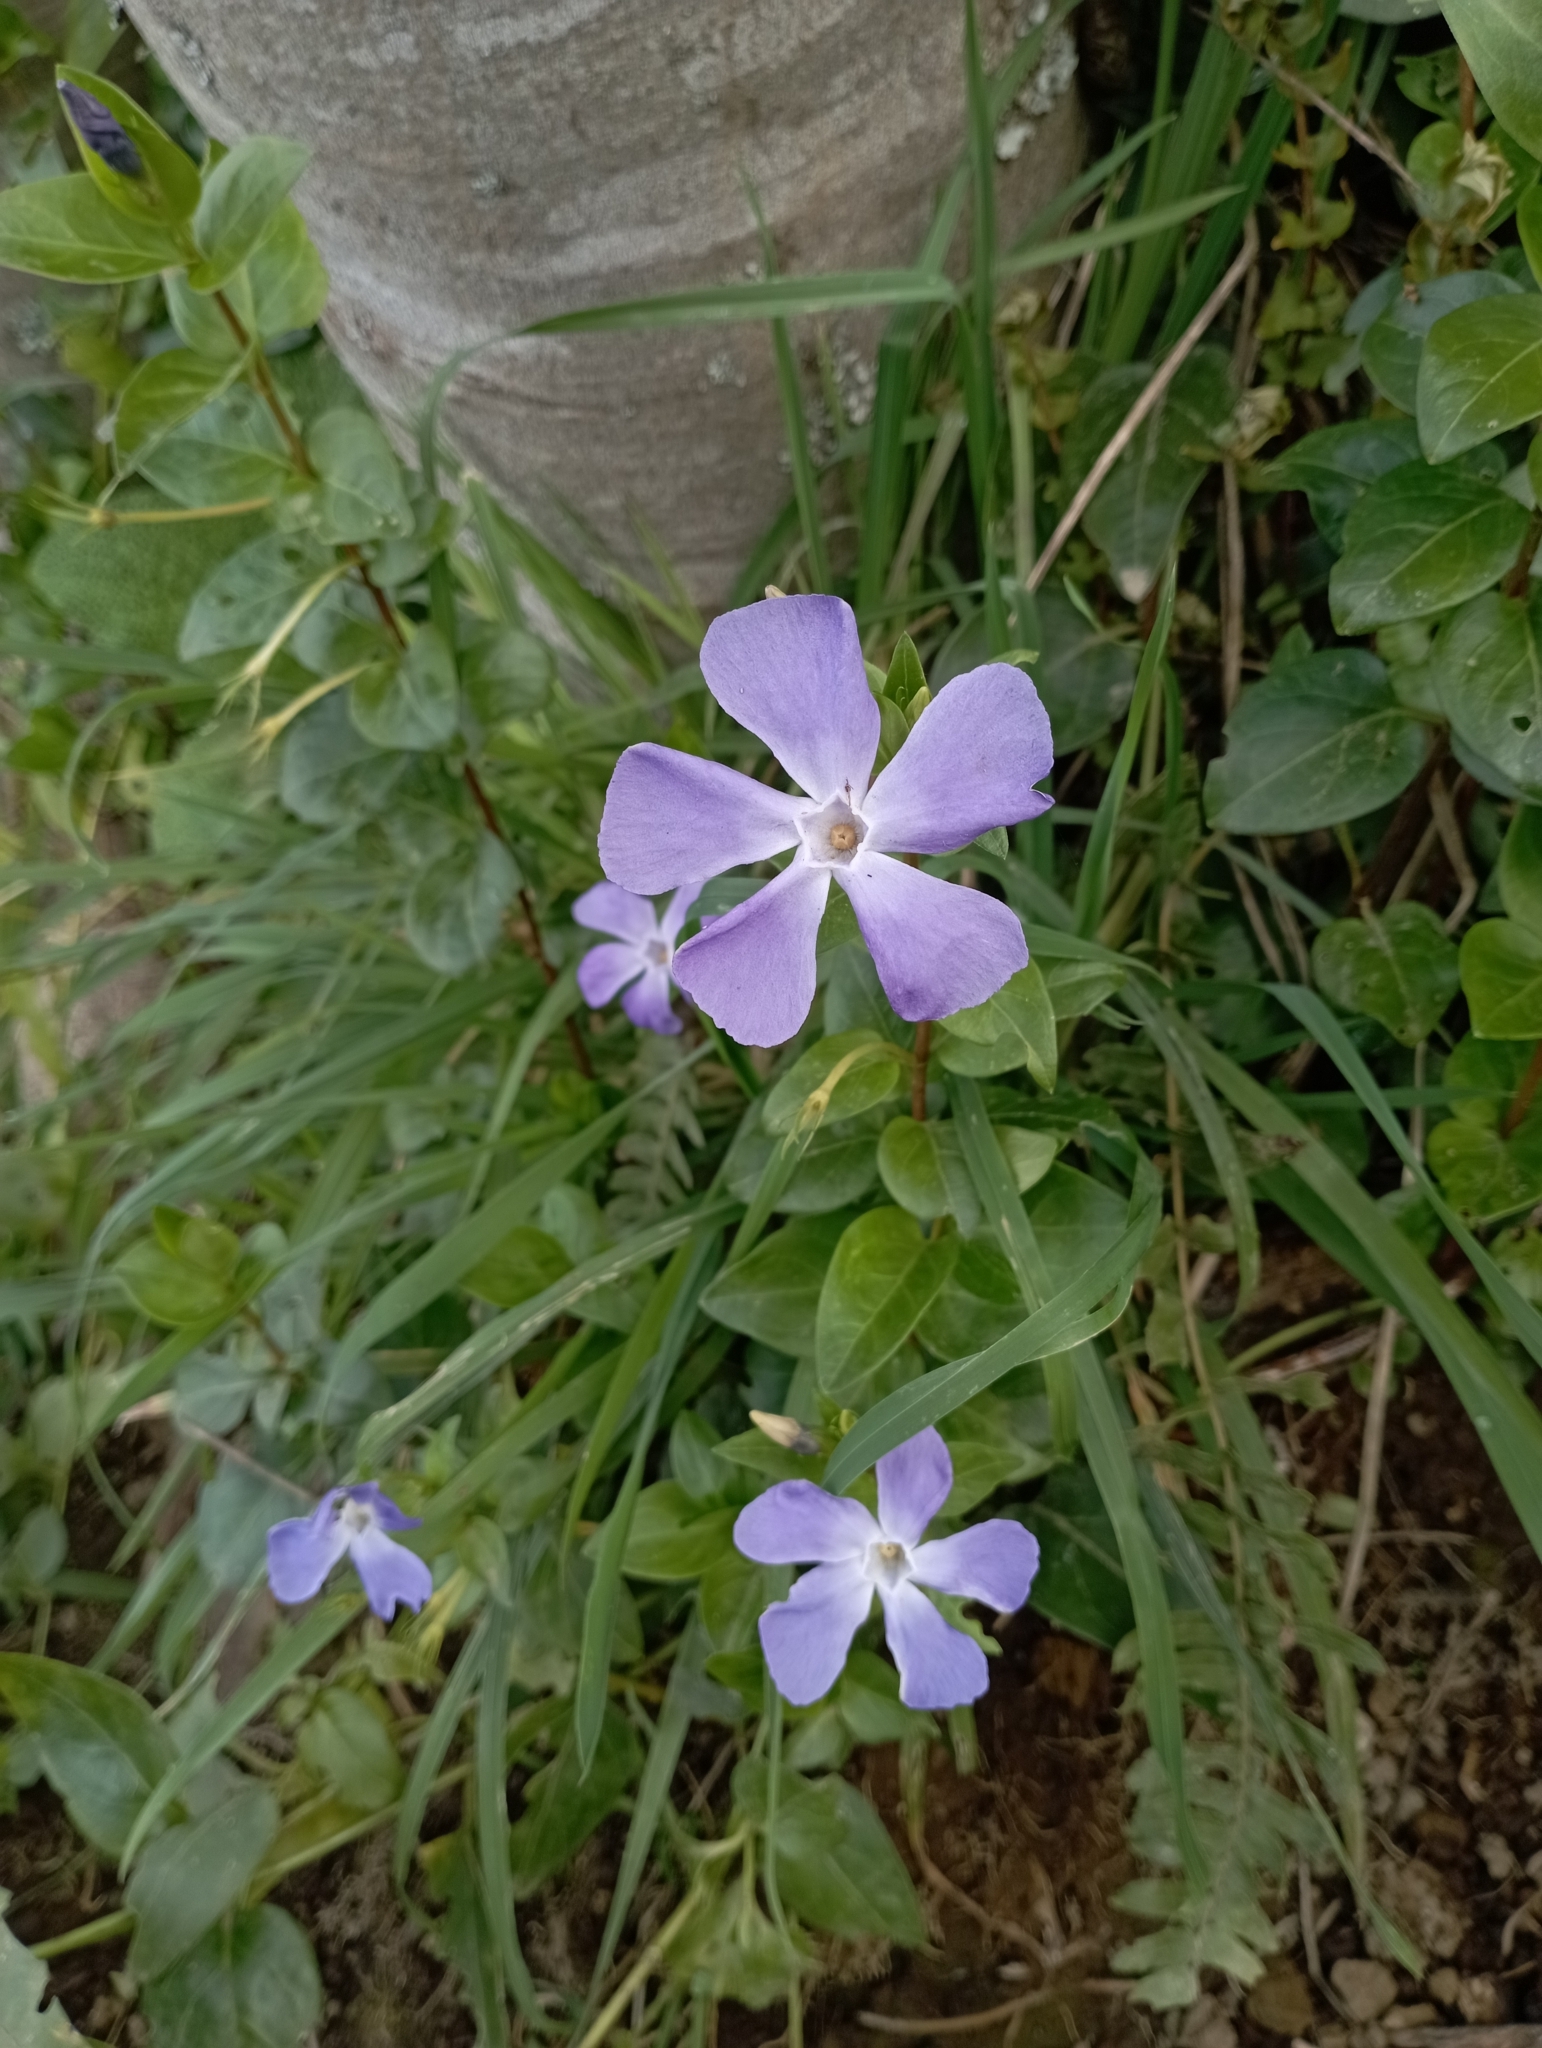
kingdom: Plantae
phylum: Tracheophyta
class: Magnoliopsida
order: Gentianales
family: Apocynaceae
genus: Vinca
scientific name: Vinca major
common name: Greater periwinkle
